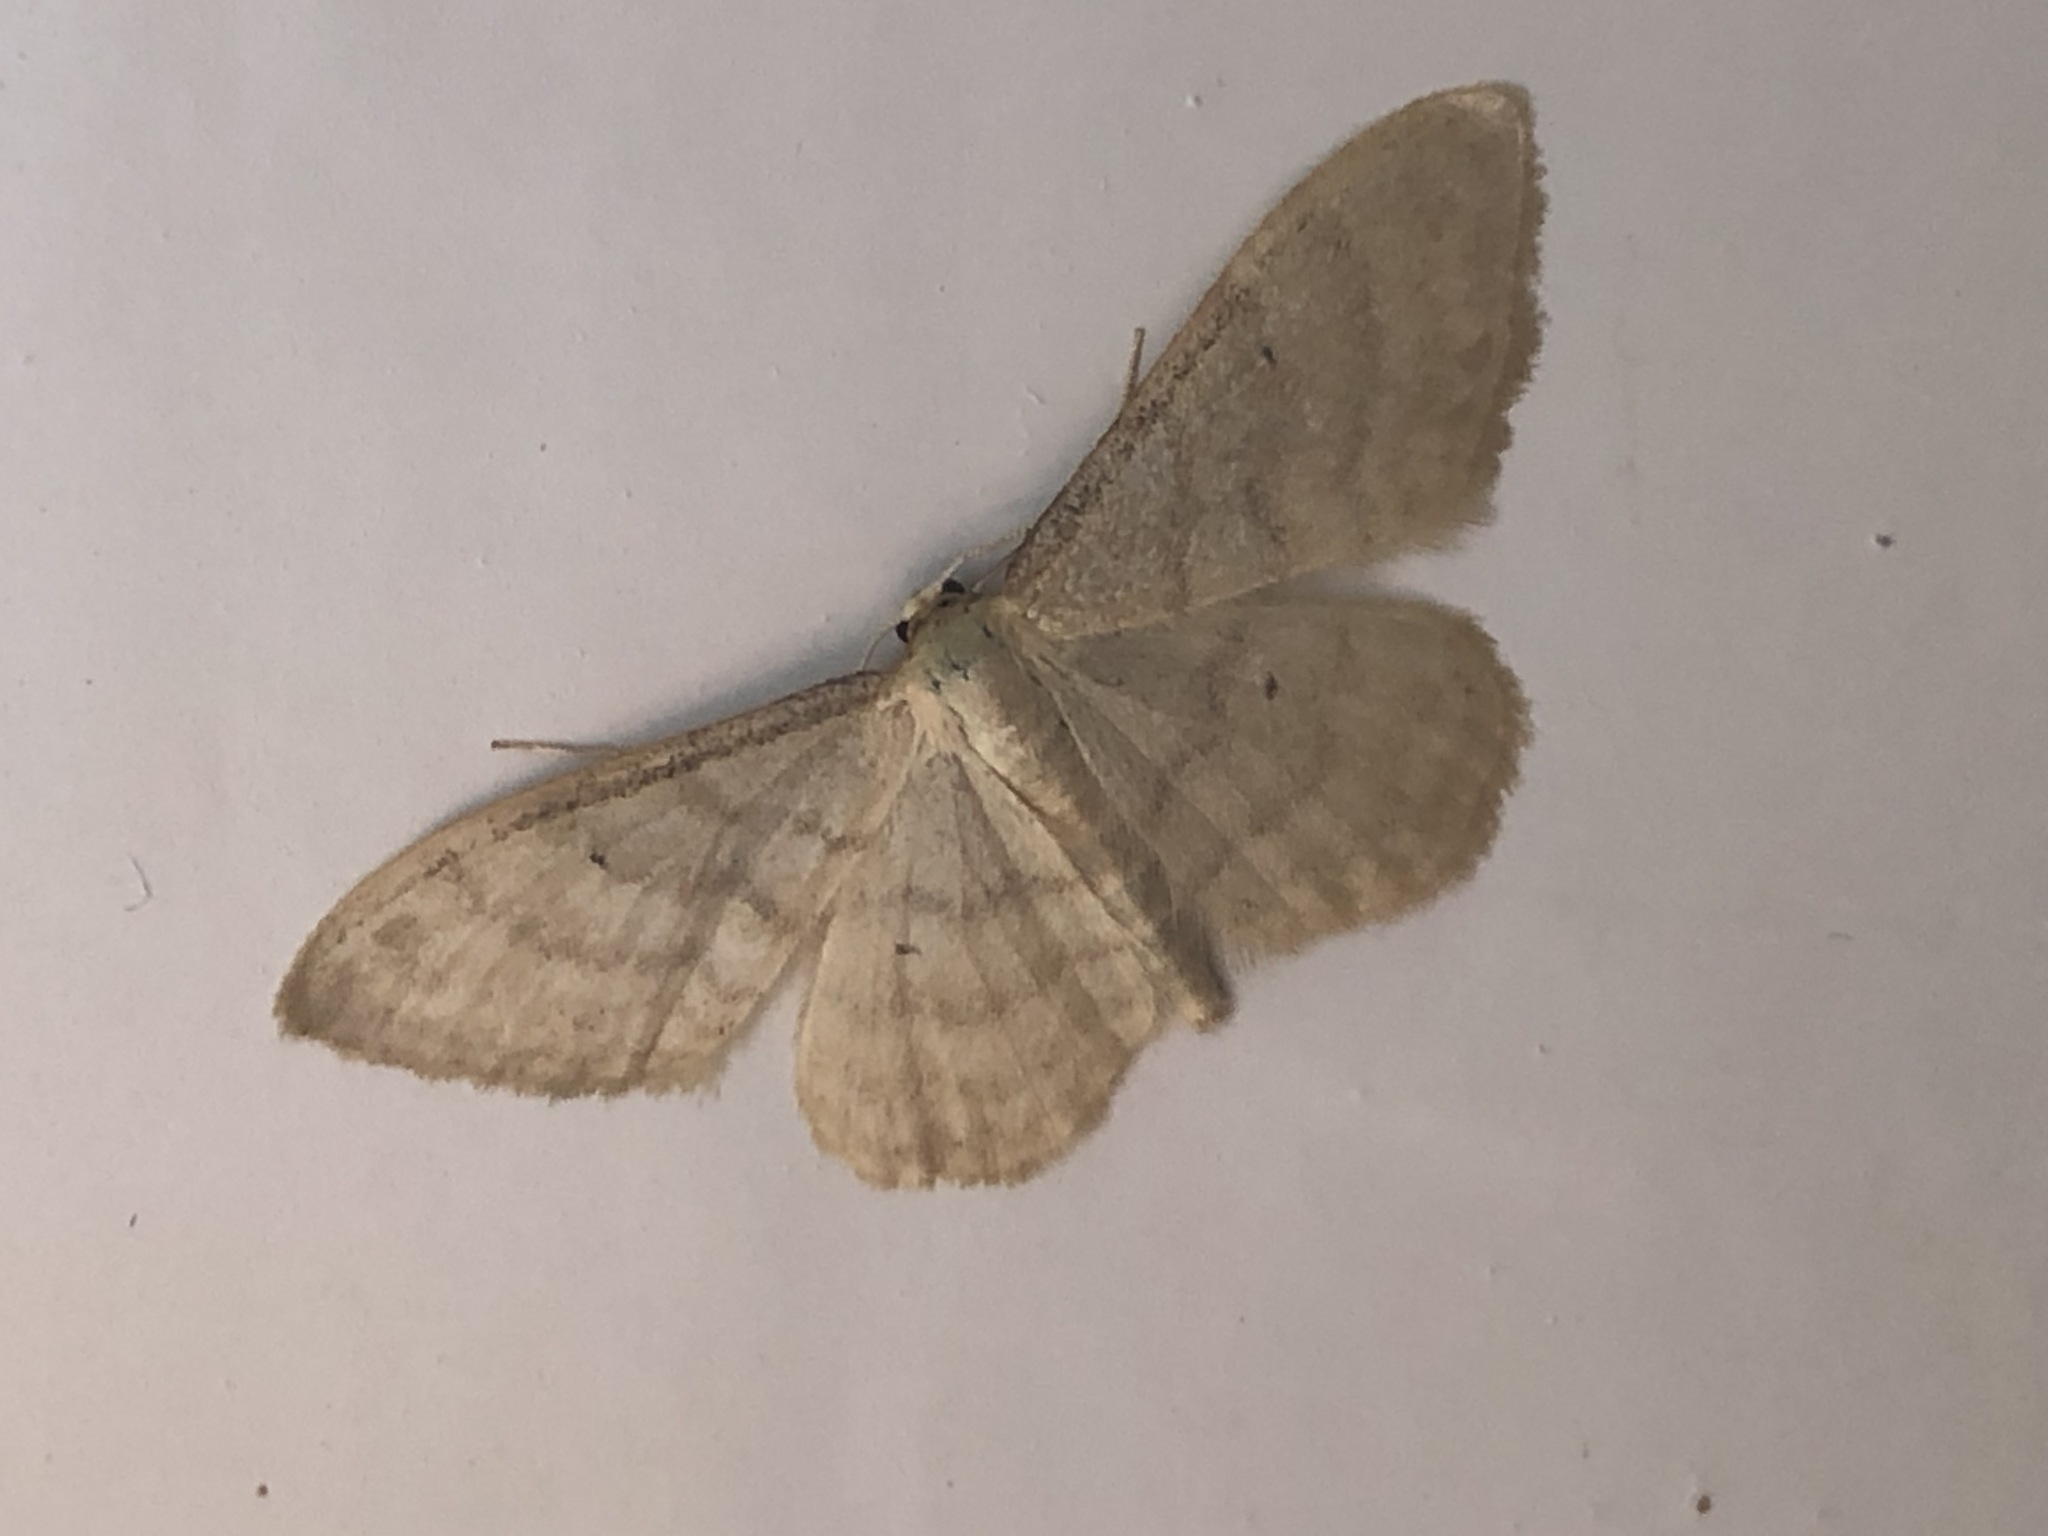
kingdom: Animalia
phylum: Arthropoda
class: Insecta
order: Lepidoptera
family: Geometridae
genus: Idaea
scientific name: Idaea dilutaria
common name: Silky wave
